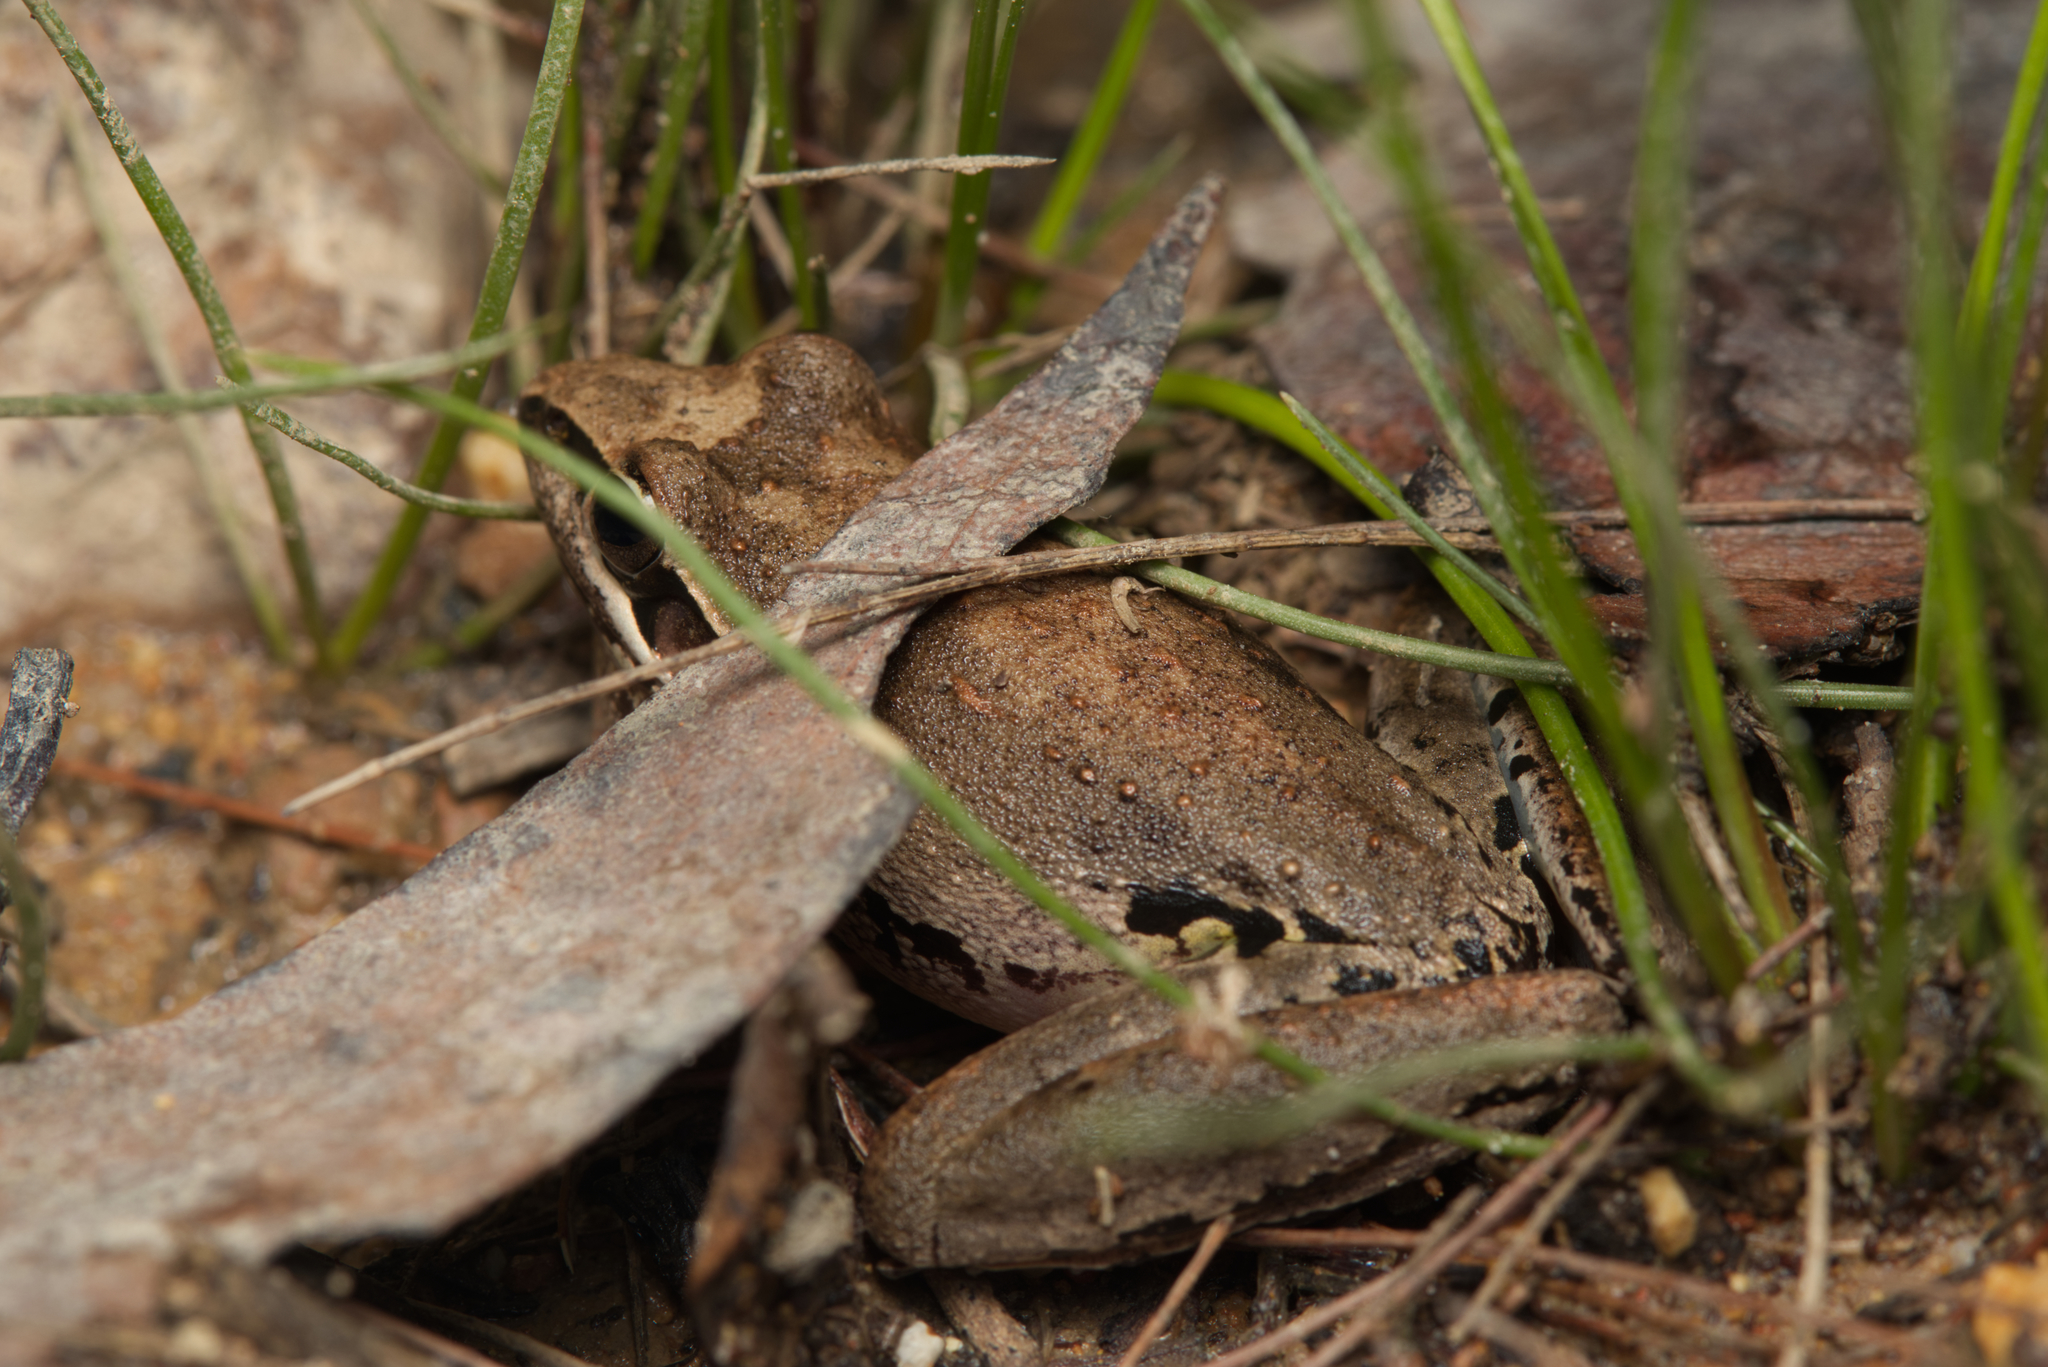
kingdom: Animalia
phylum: Chordata
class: Amphibia
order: Anura
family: Pelodryadidae
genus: Litoria
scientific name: Litoria latopalmata
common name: Broad-palmed rocket frog
